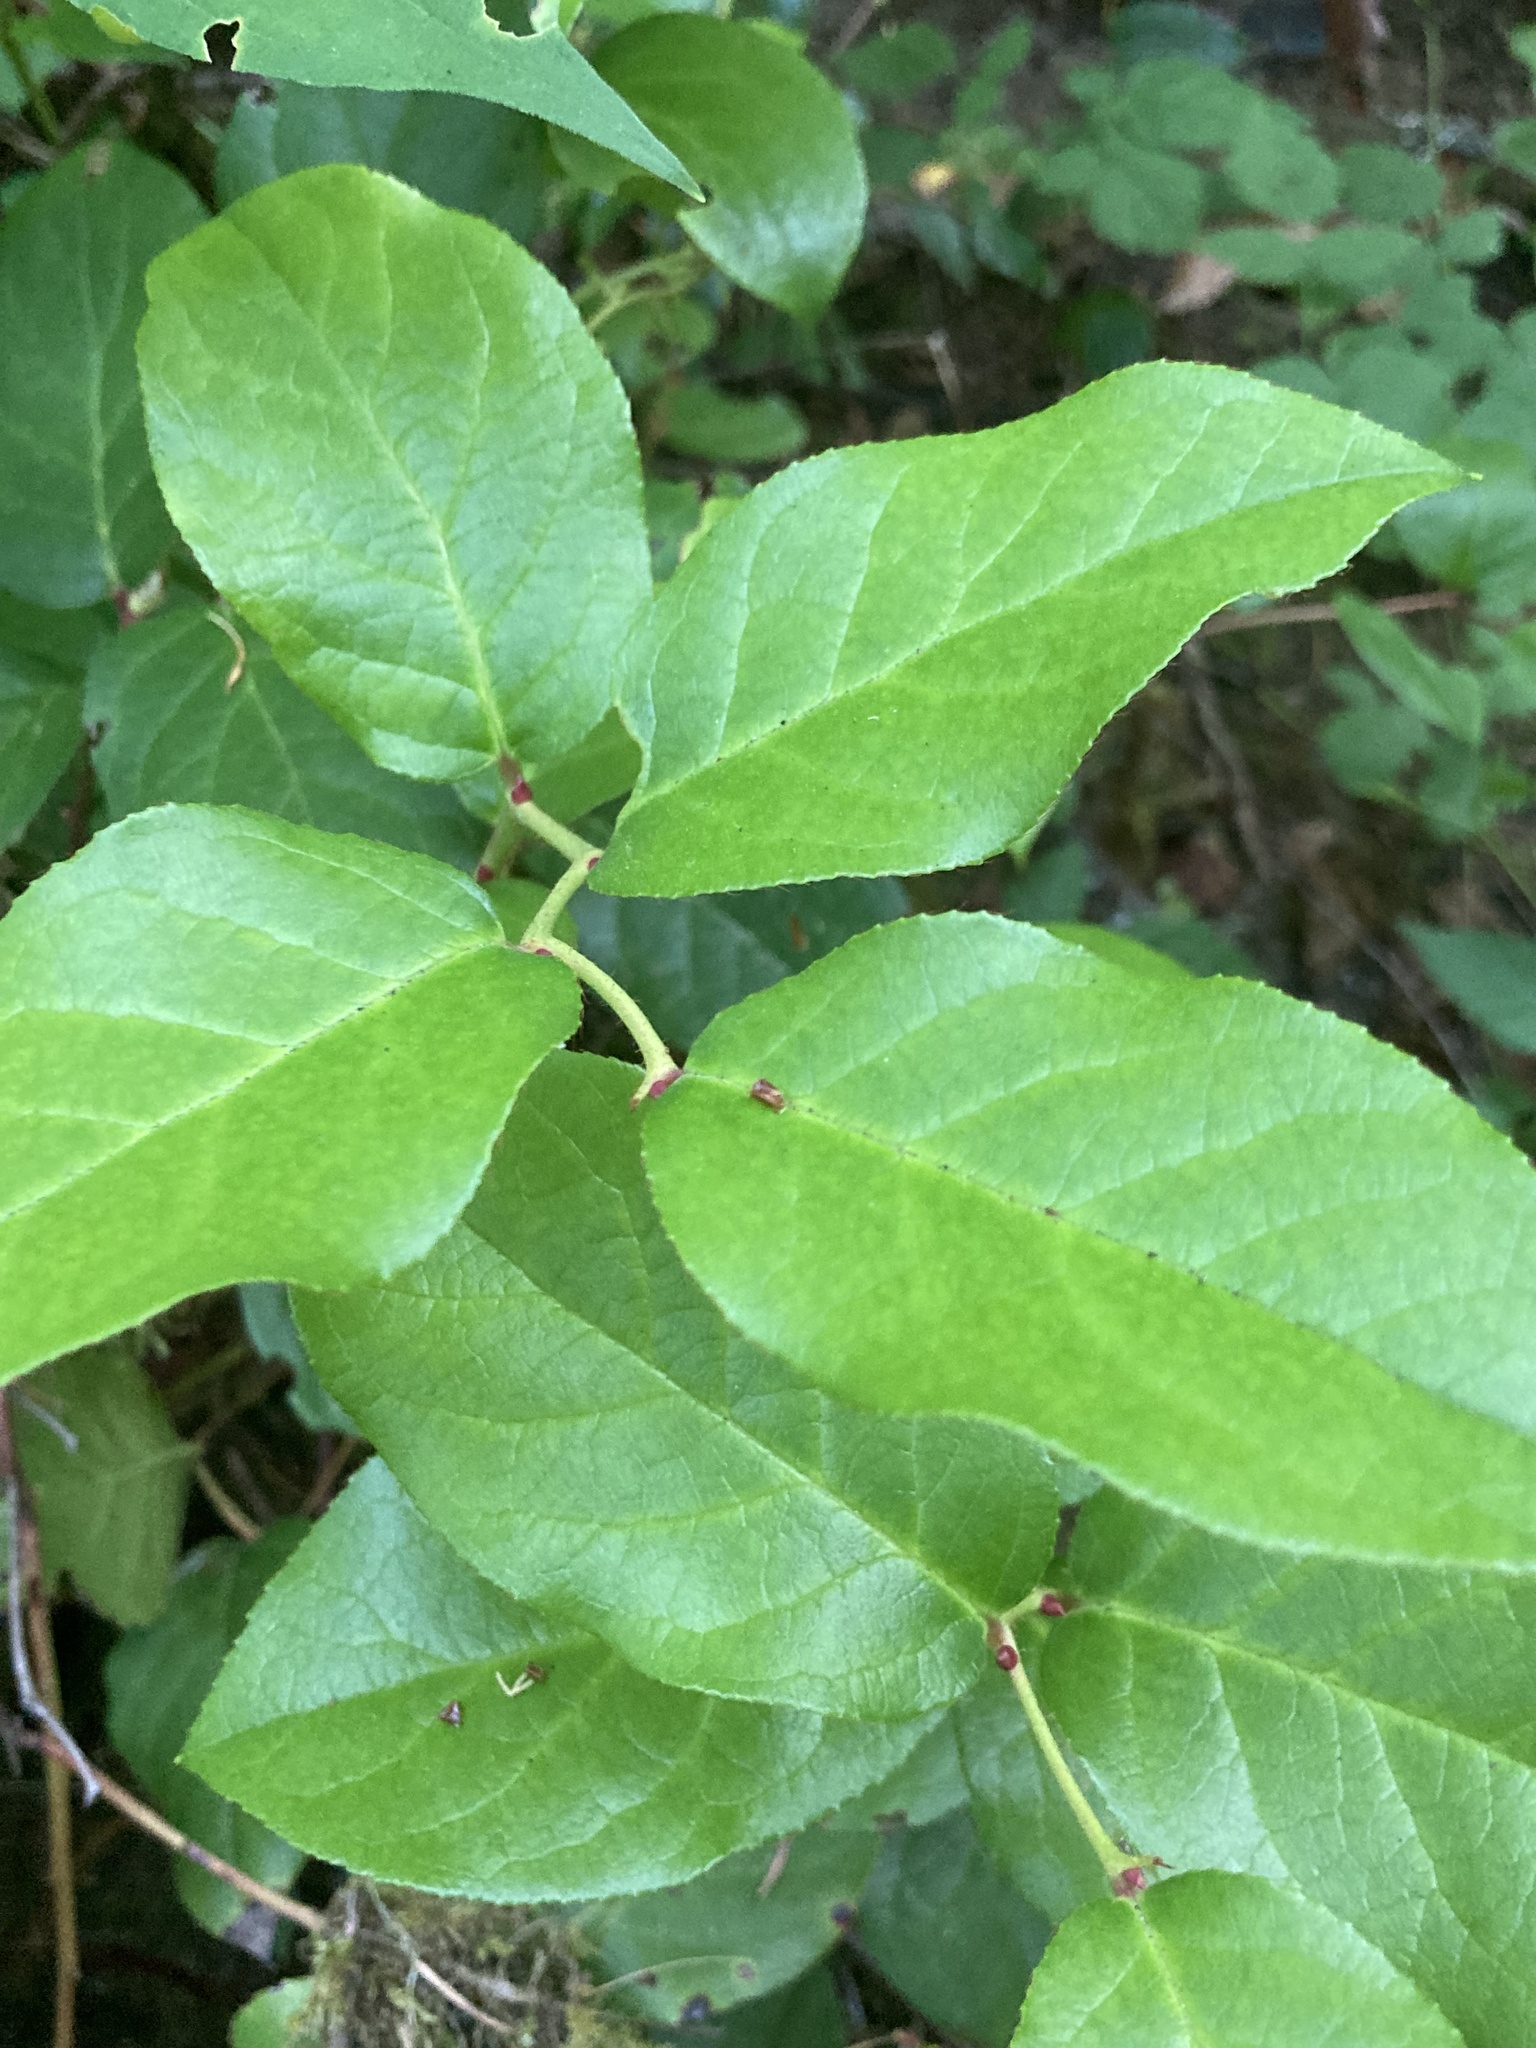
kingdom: Plantae
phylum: Tracheophyta
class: Magnoliopsida
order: Ericales
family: Ericaceae
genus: Gaultheria
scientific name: Gaultheria shallon
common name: Shallon
